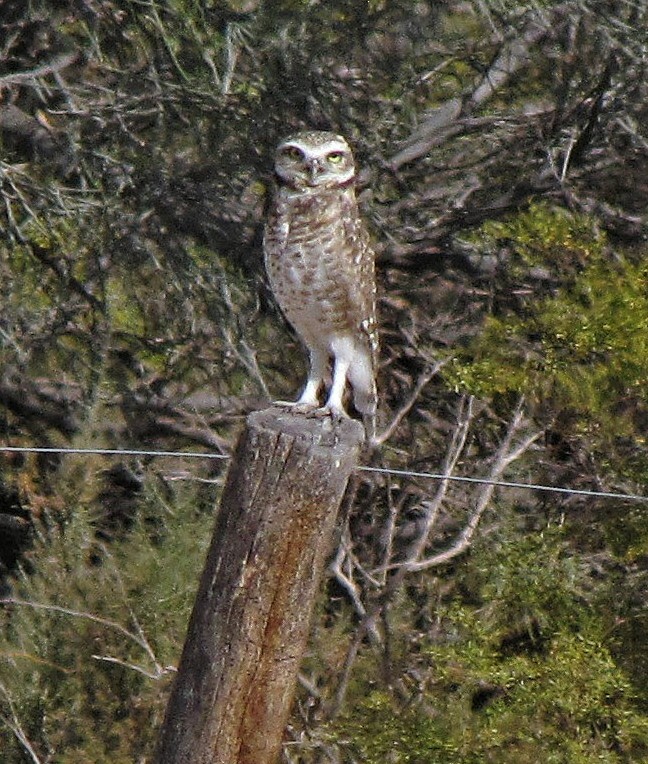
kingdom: Animalia
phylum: Chordata
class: Aves
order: Strigiformes
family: Strigidae
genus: Athene
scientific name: Athene cunicularia
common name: Burrowing owl
